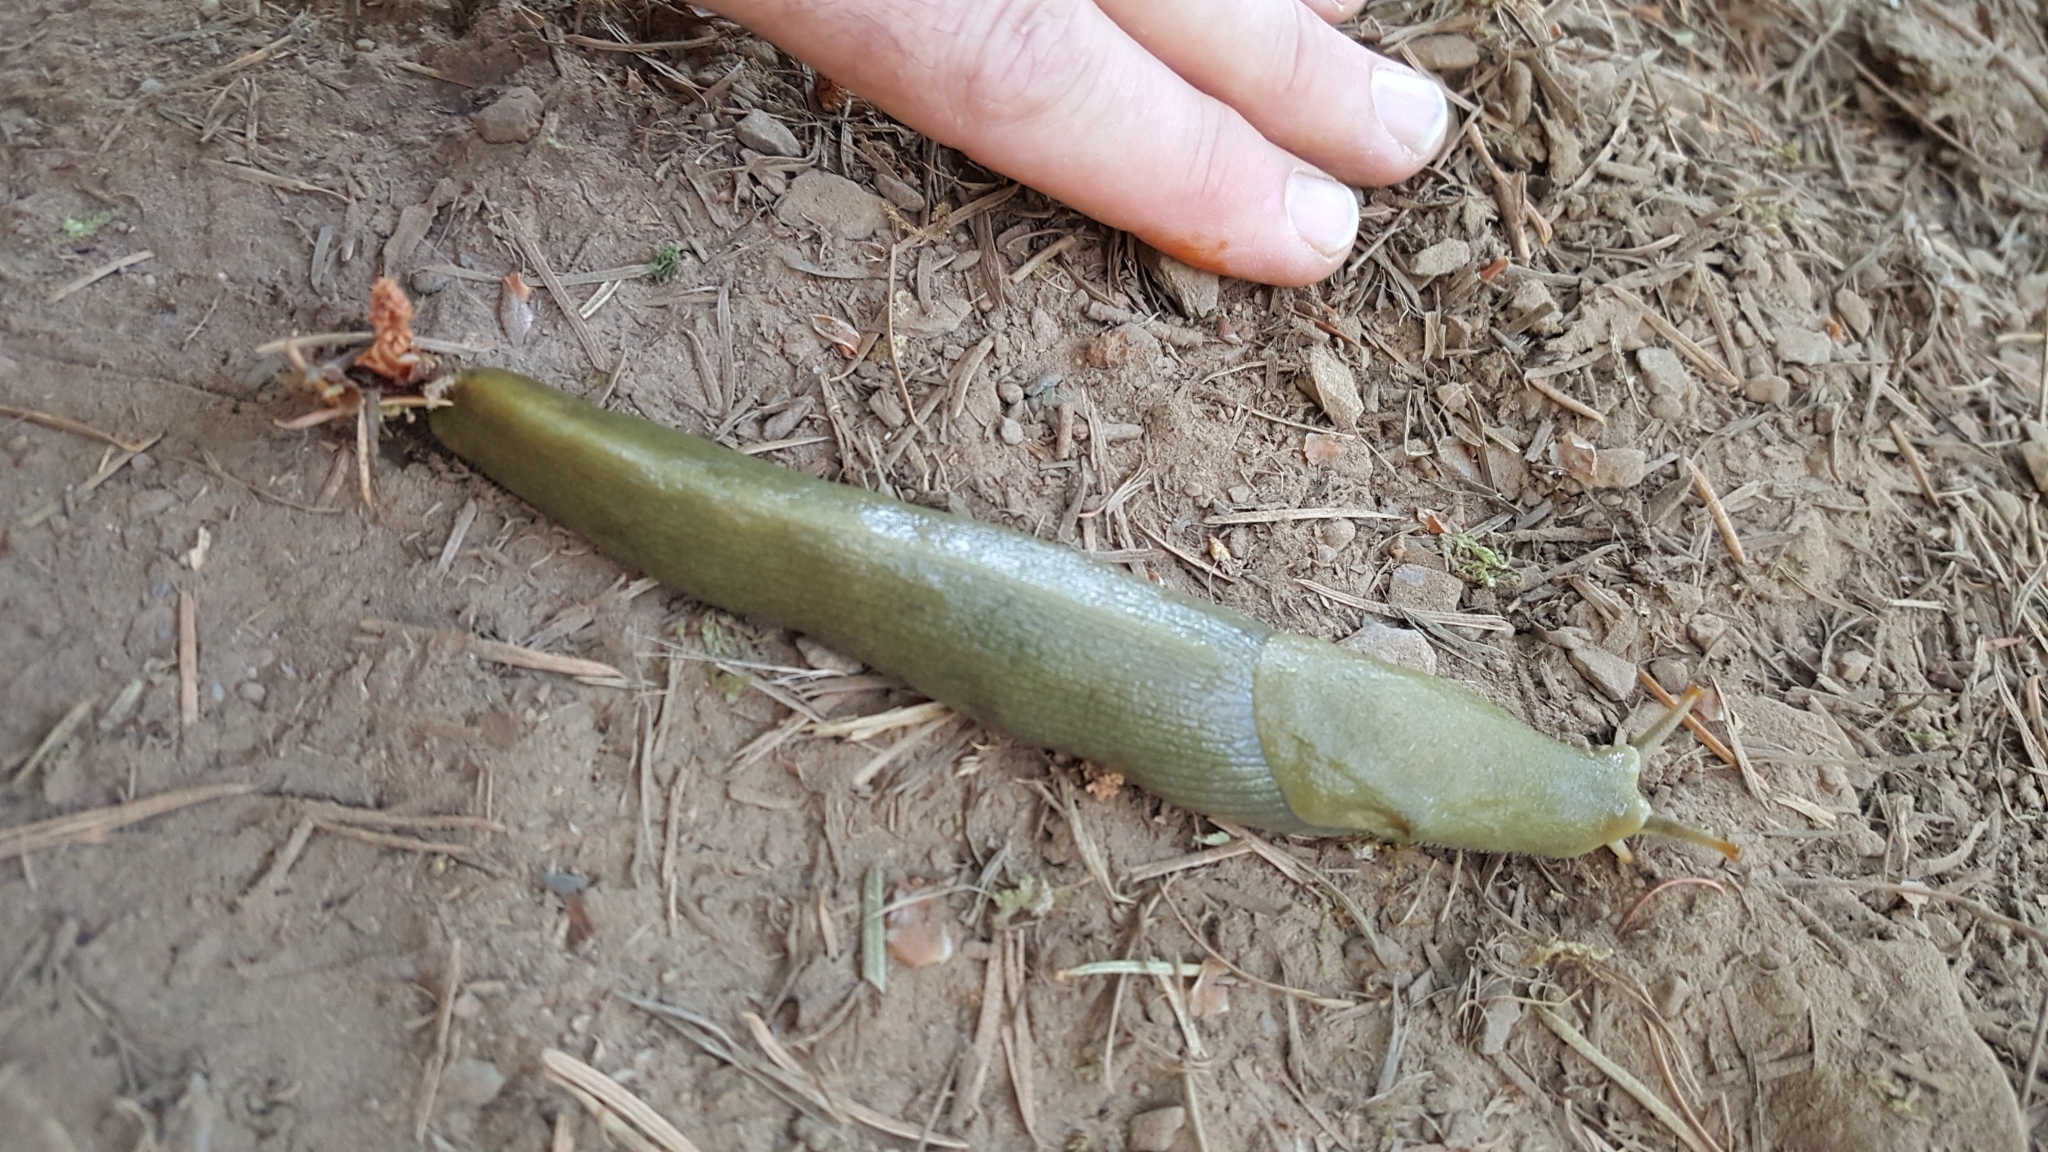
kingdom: Animalia
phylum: Mollusca
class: Gastropoda
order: Stylommatophora
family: Ariolimacidae
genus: Ariolimax
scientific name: Ariolimax buttoni
